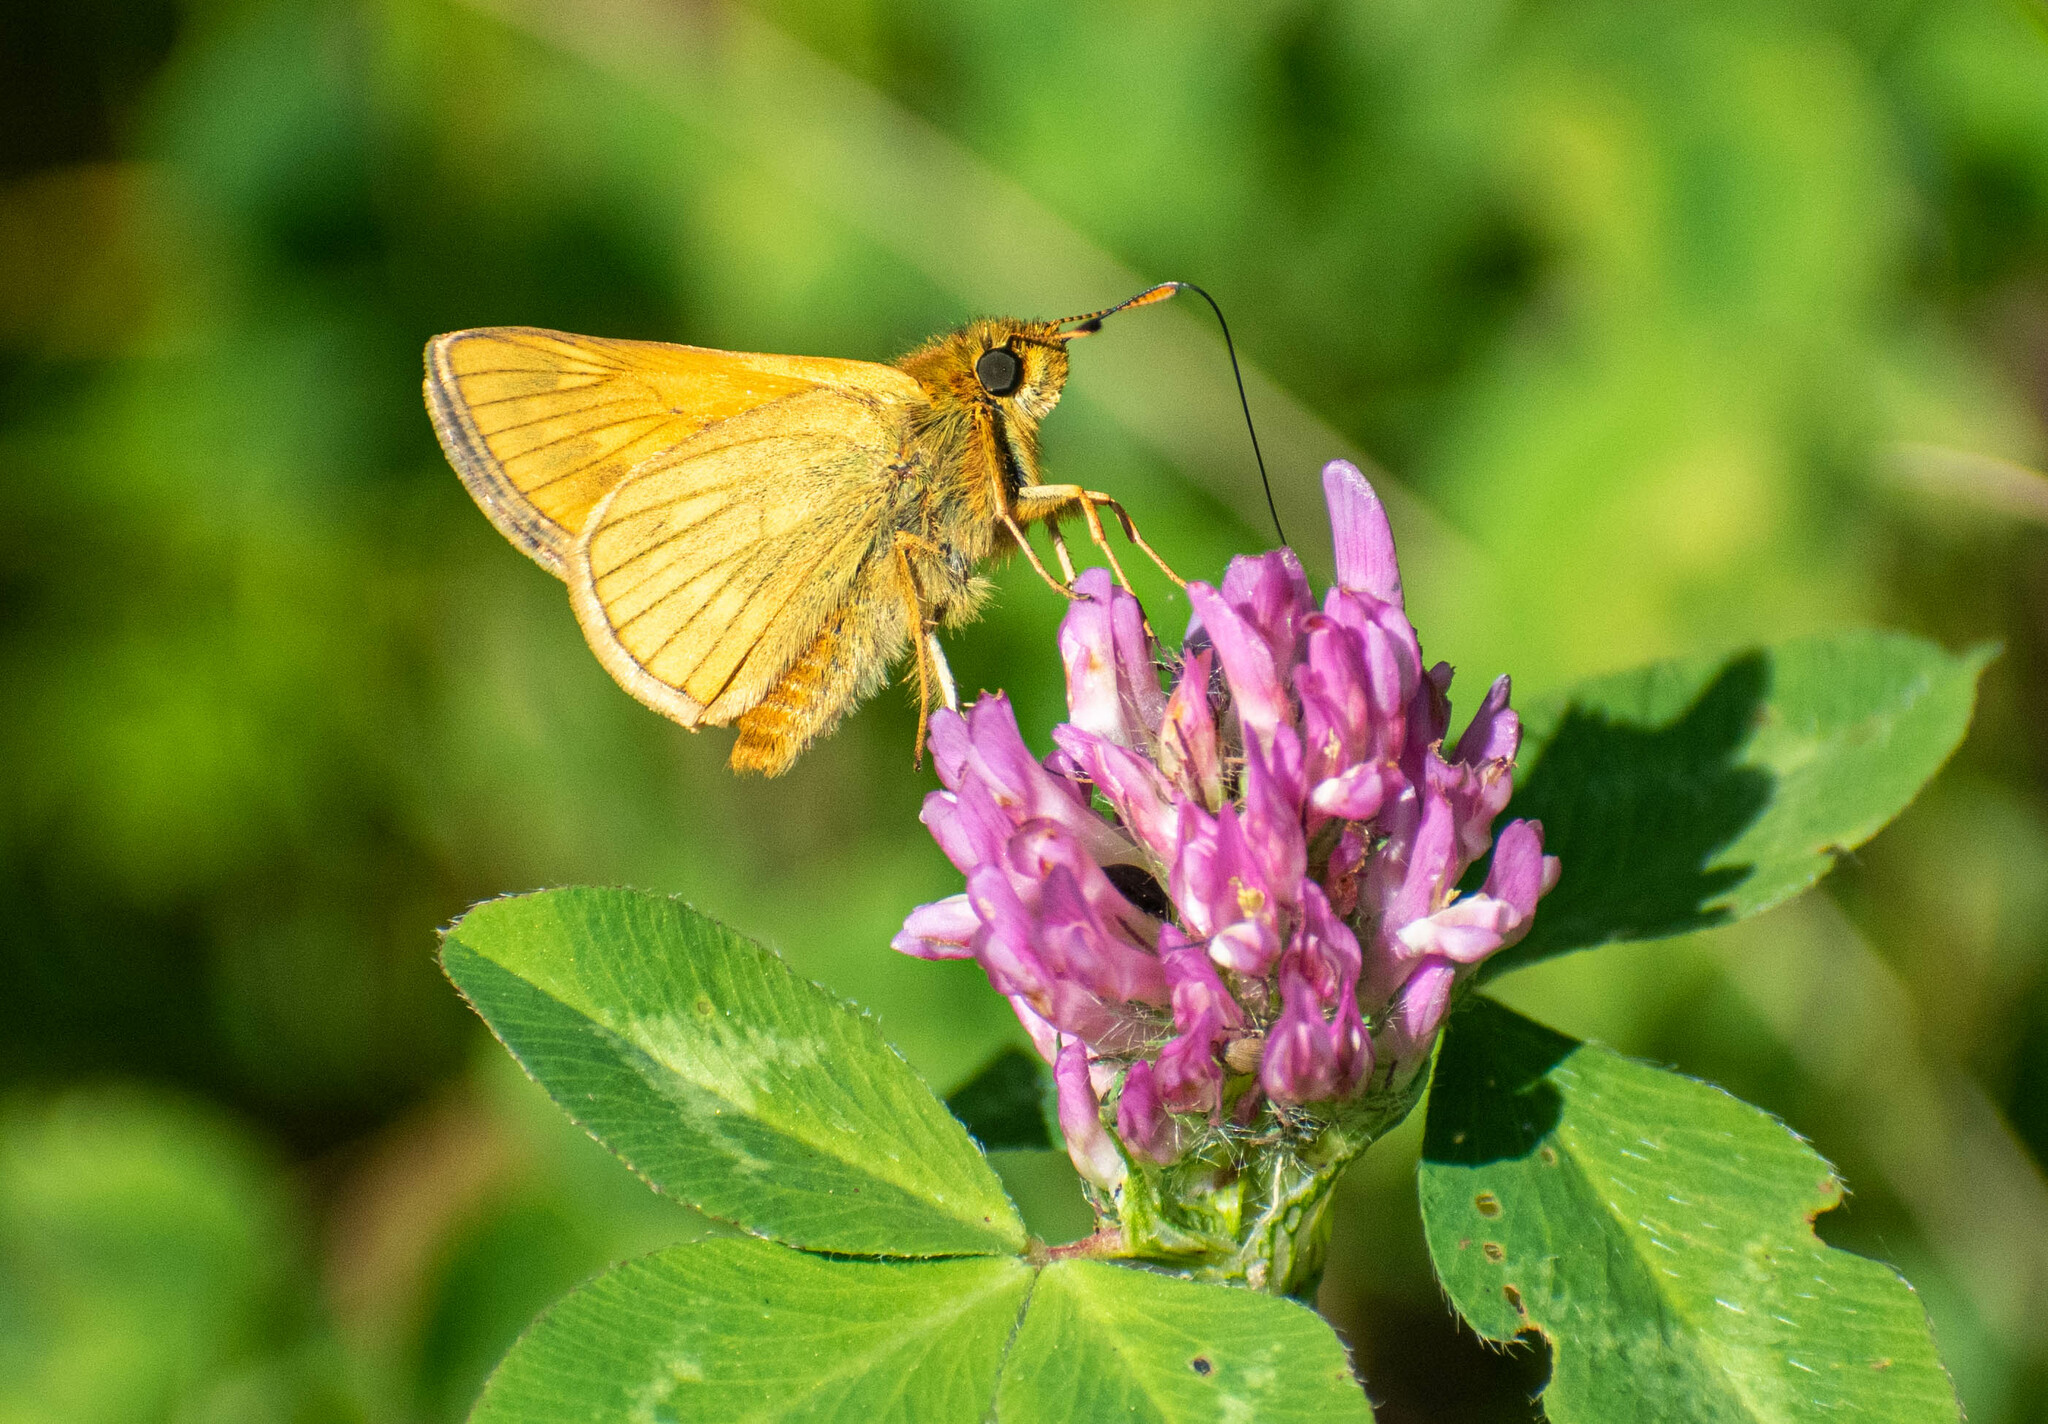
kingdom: Animalia
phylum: Arthropoda
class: Insecta
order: Lepidoptera
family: Hesperiidae
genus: Ochlodes
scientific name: Ochlodes venata
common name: Large skipper
